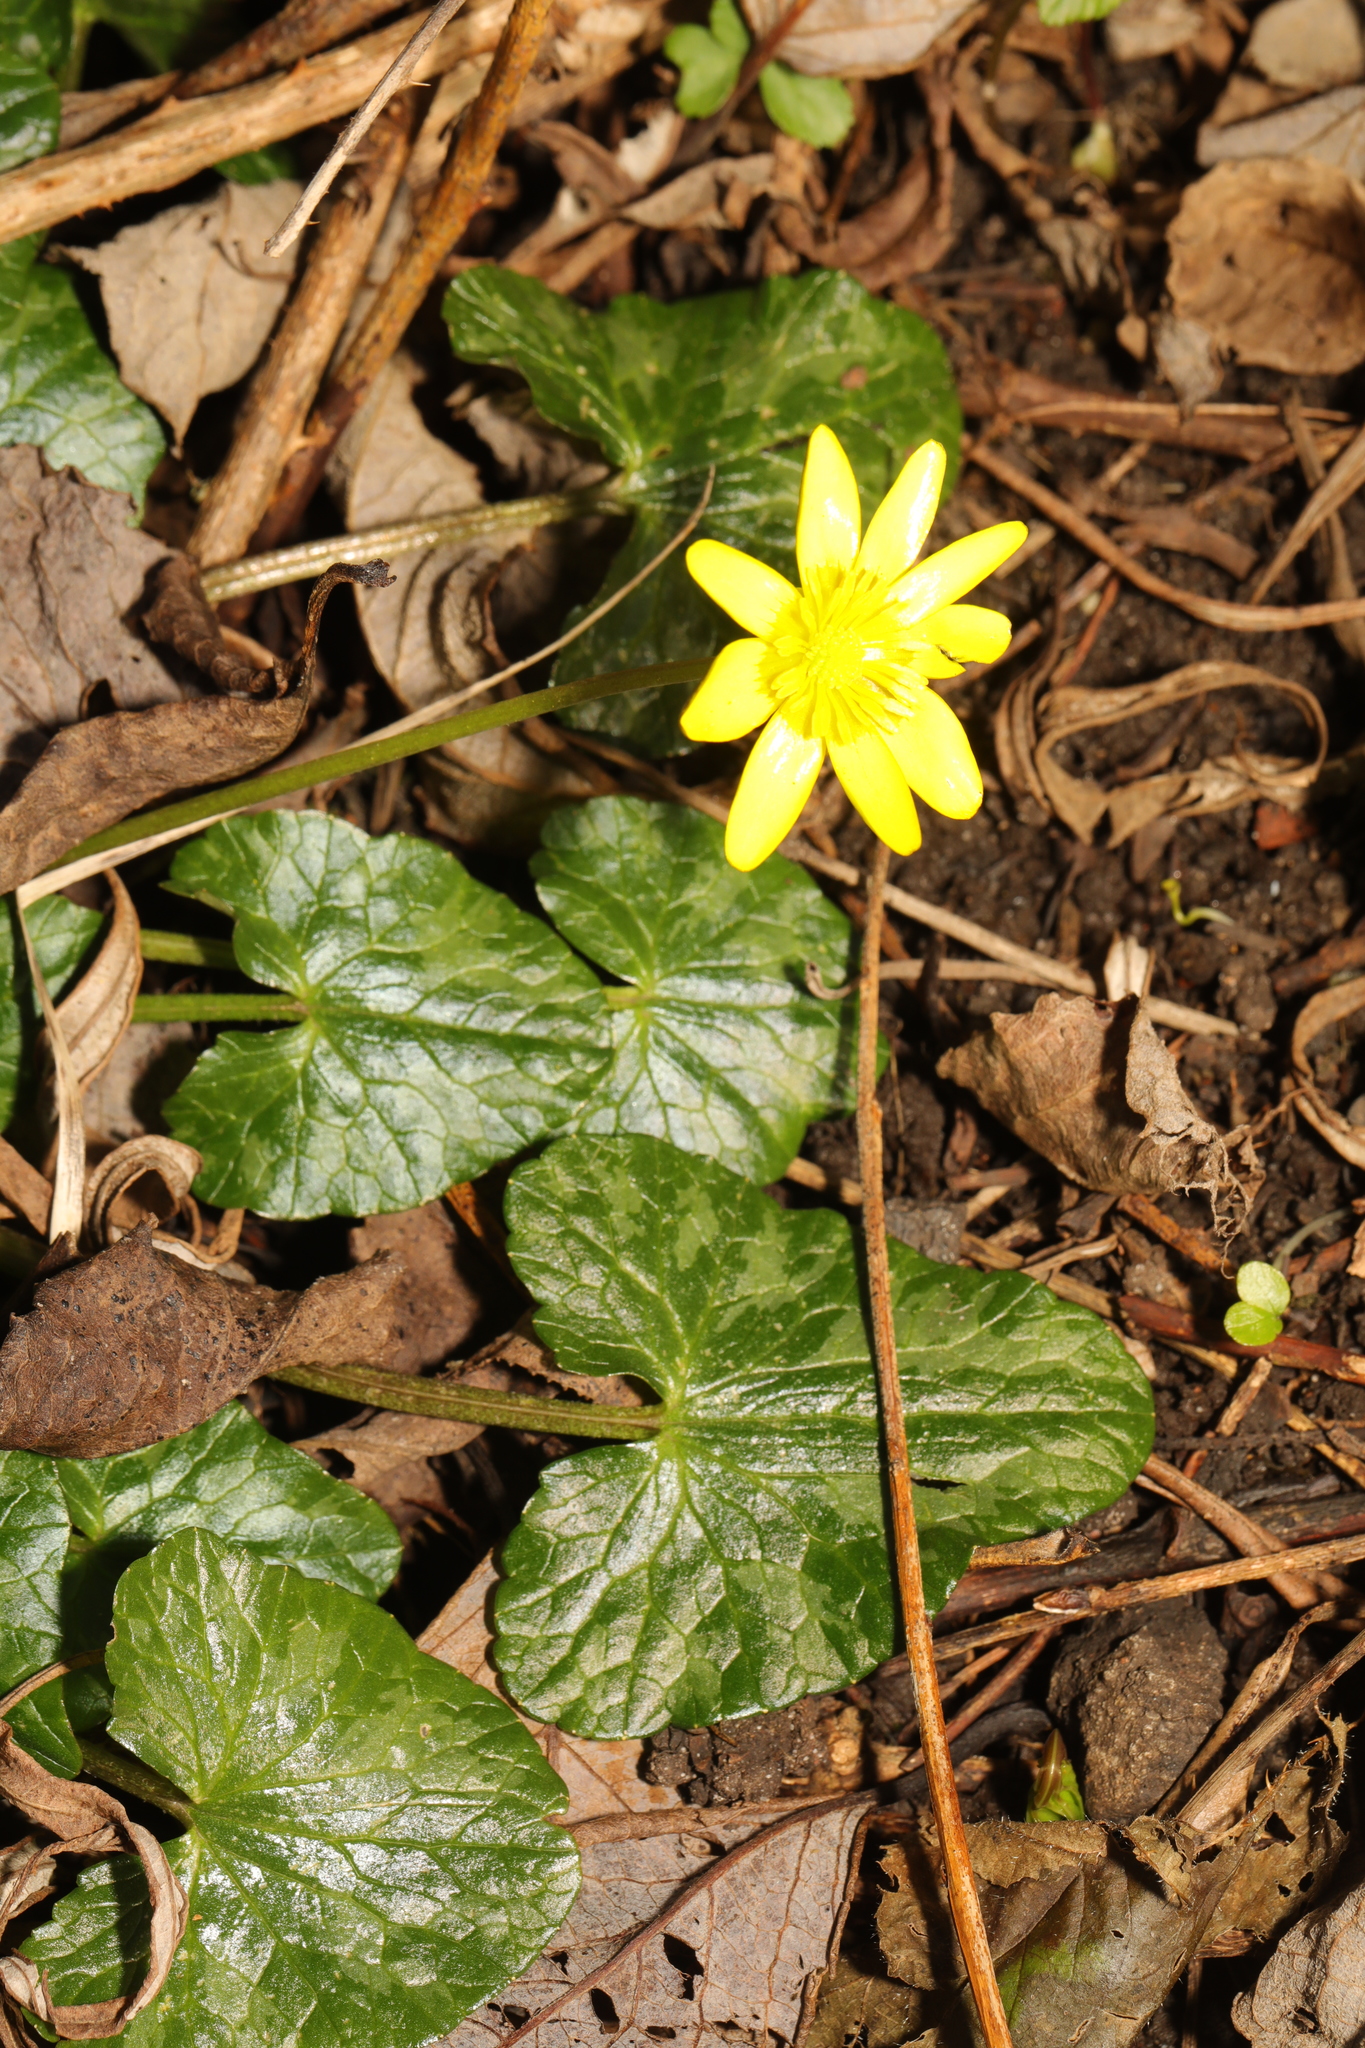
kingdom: Plantae
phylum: Tracheophyta
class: Magnoliopsida
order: Ranunculales
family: Ranunculaceae
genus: Ficaria
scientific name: Ficaria verna
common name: Lesser celandine
